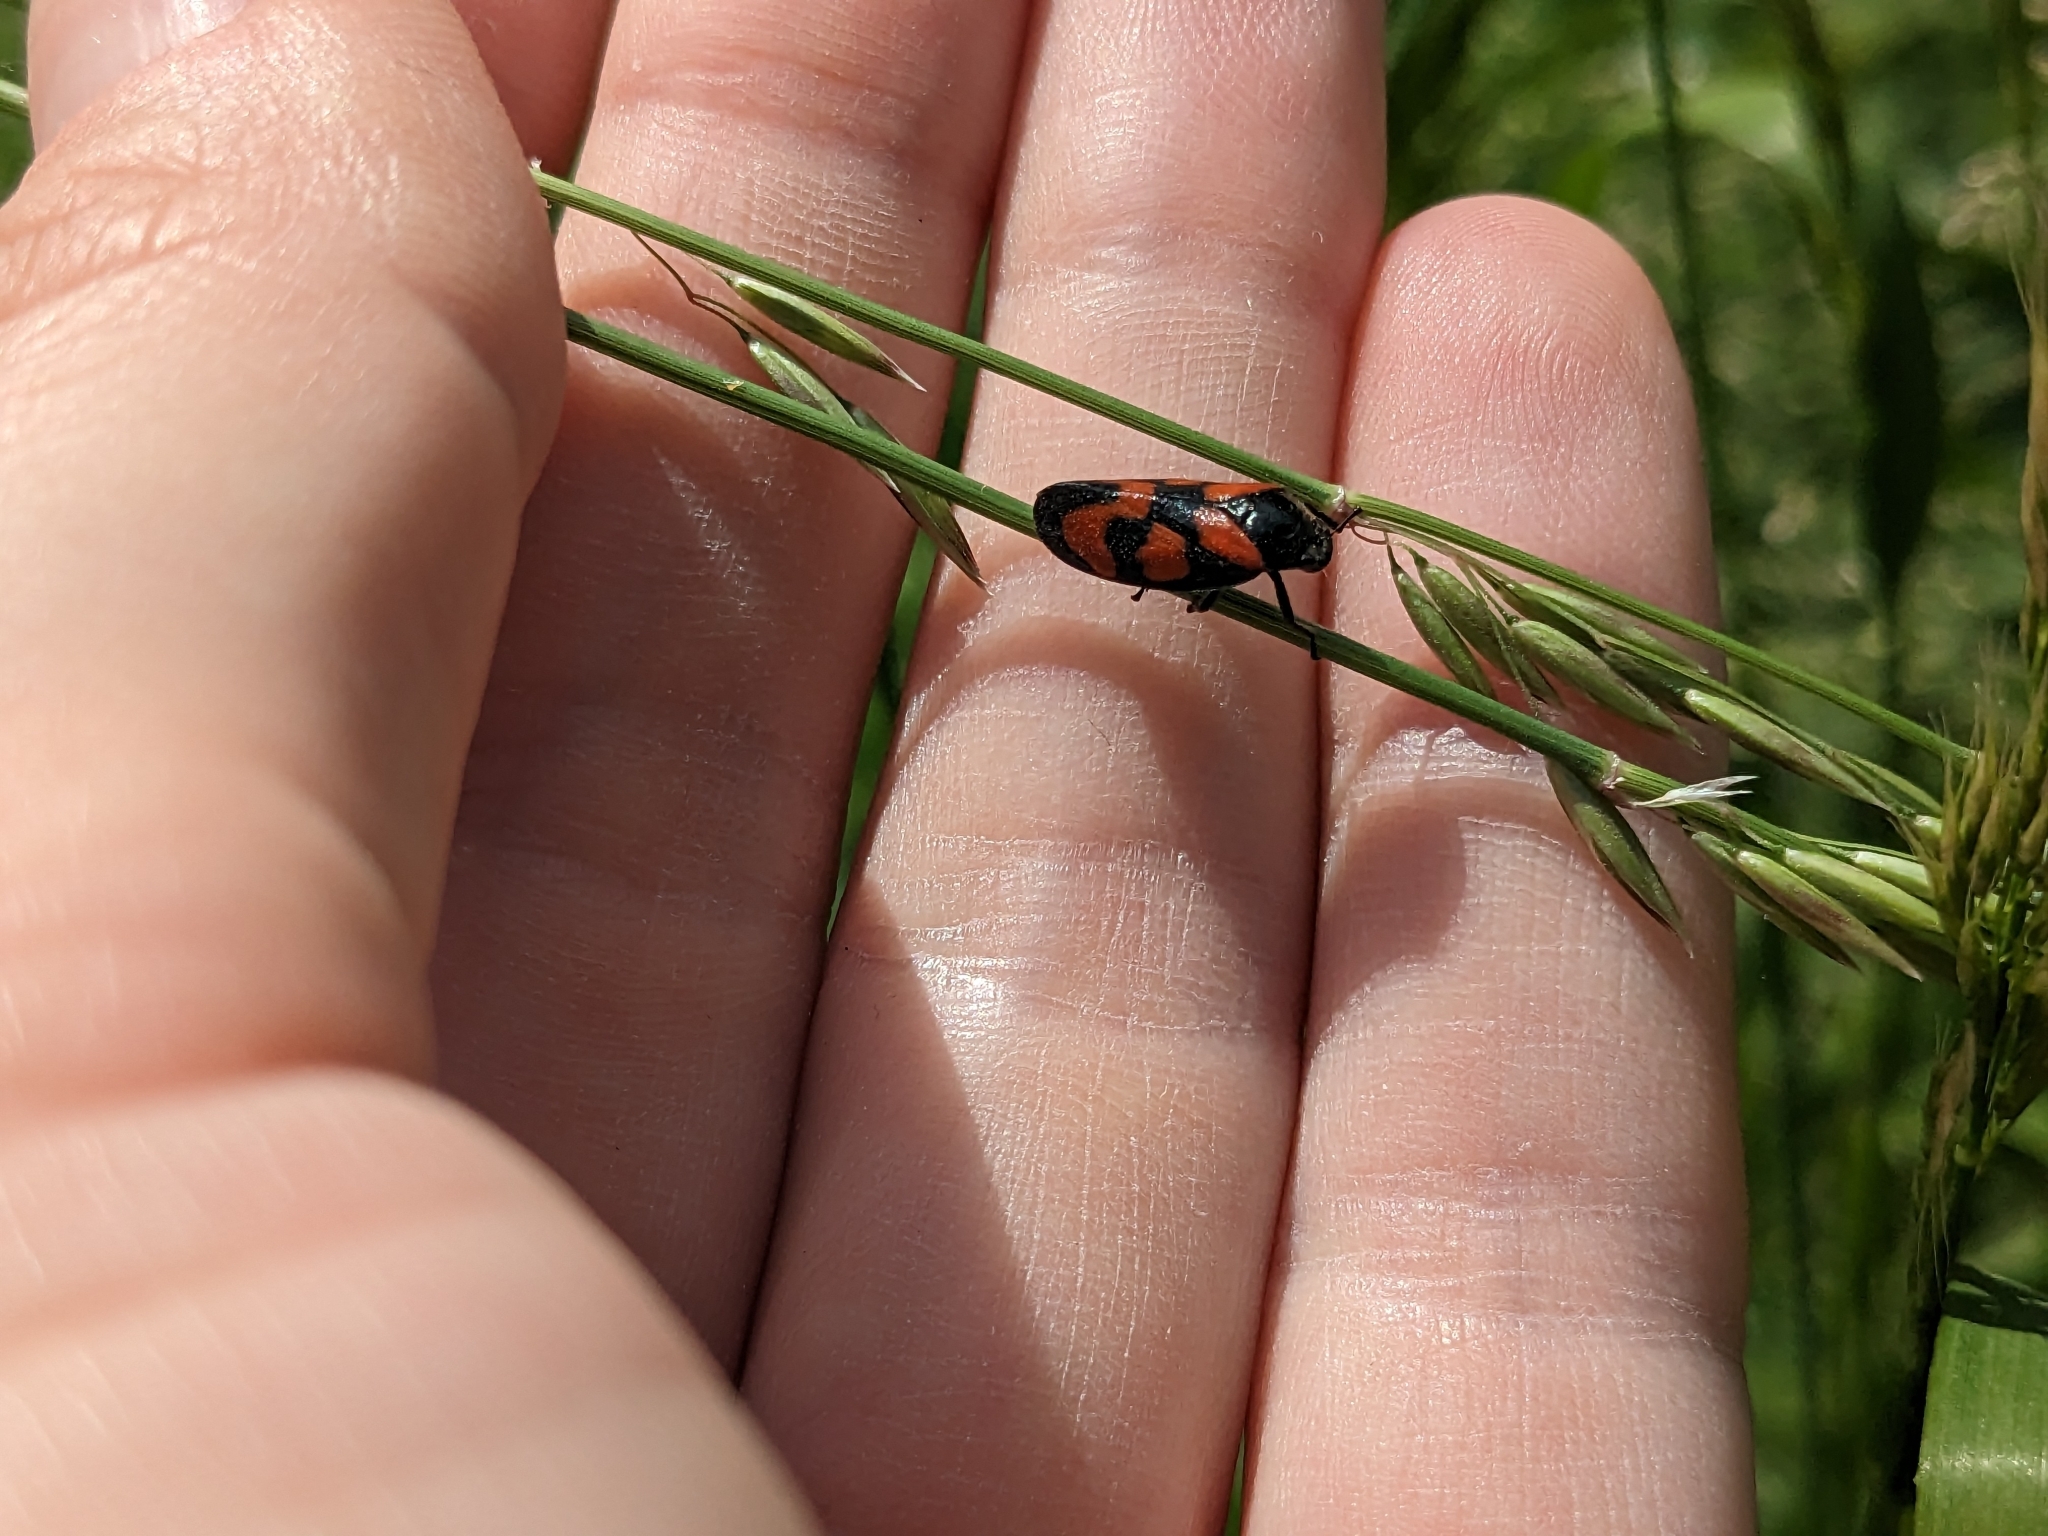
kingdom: Animalia
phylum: Arthropoda
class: Insecta
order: Hemiptera
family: Cercopidae
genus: Cercopis
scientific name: Cercopis vulnerata
